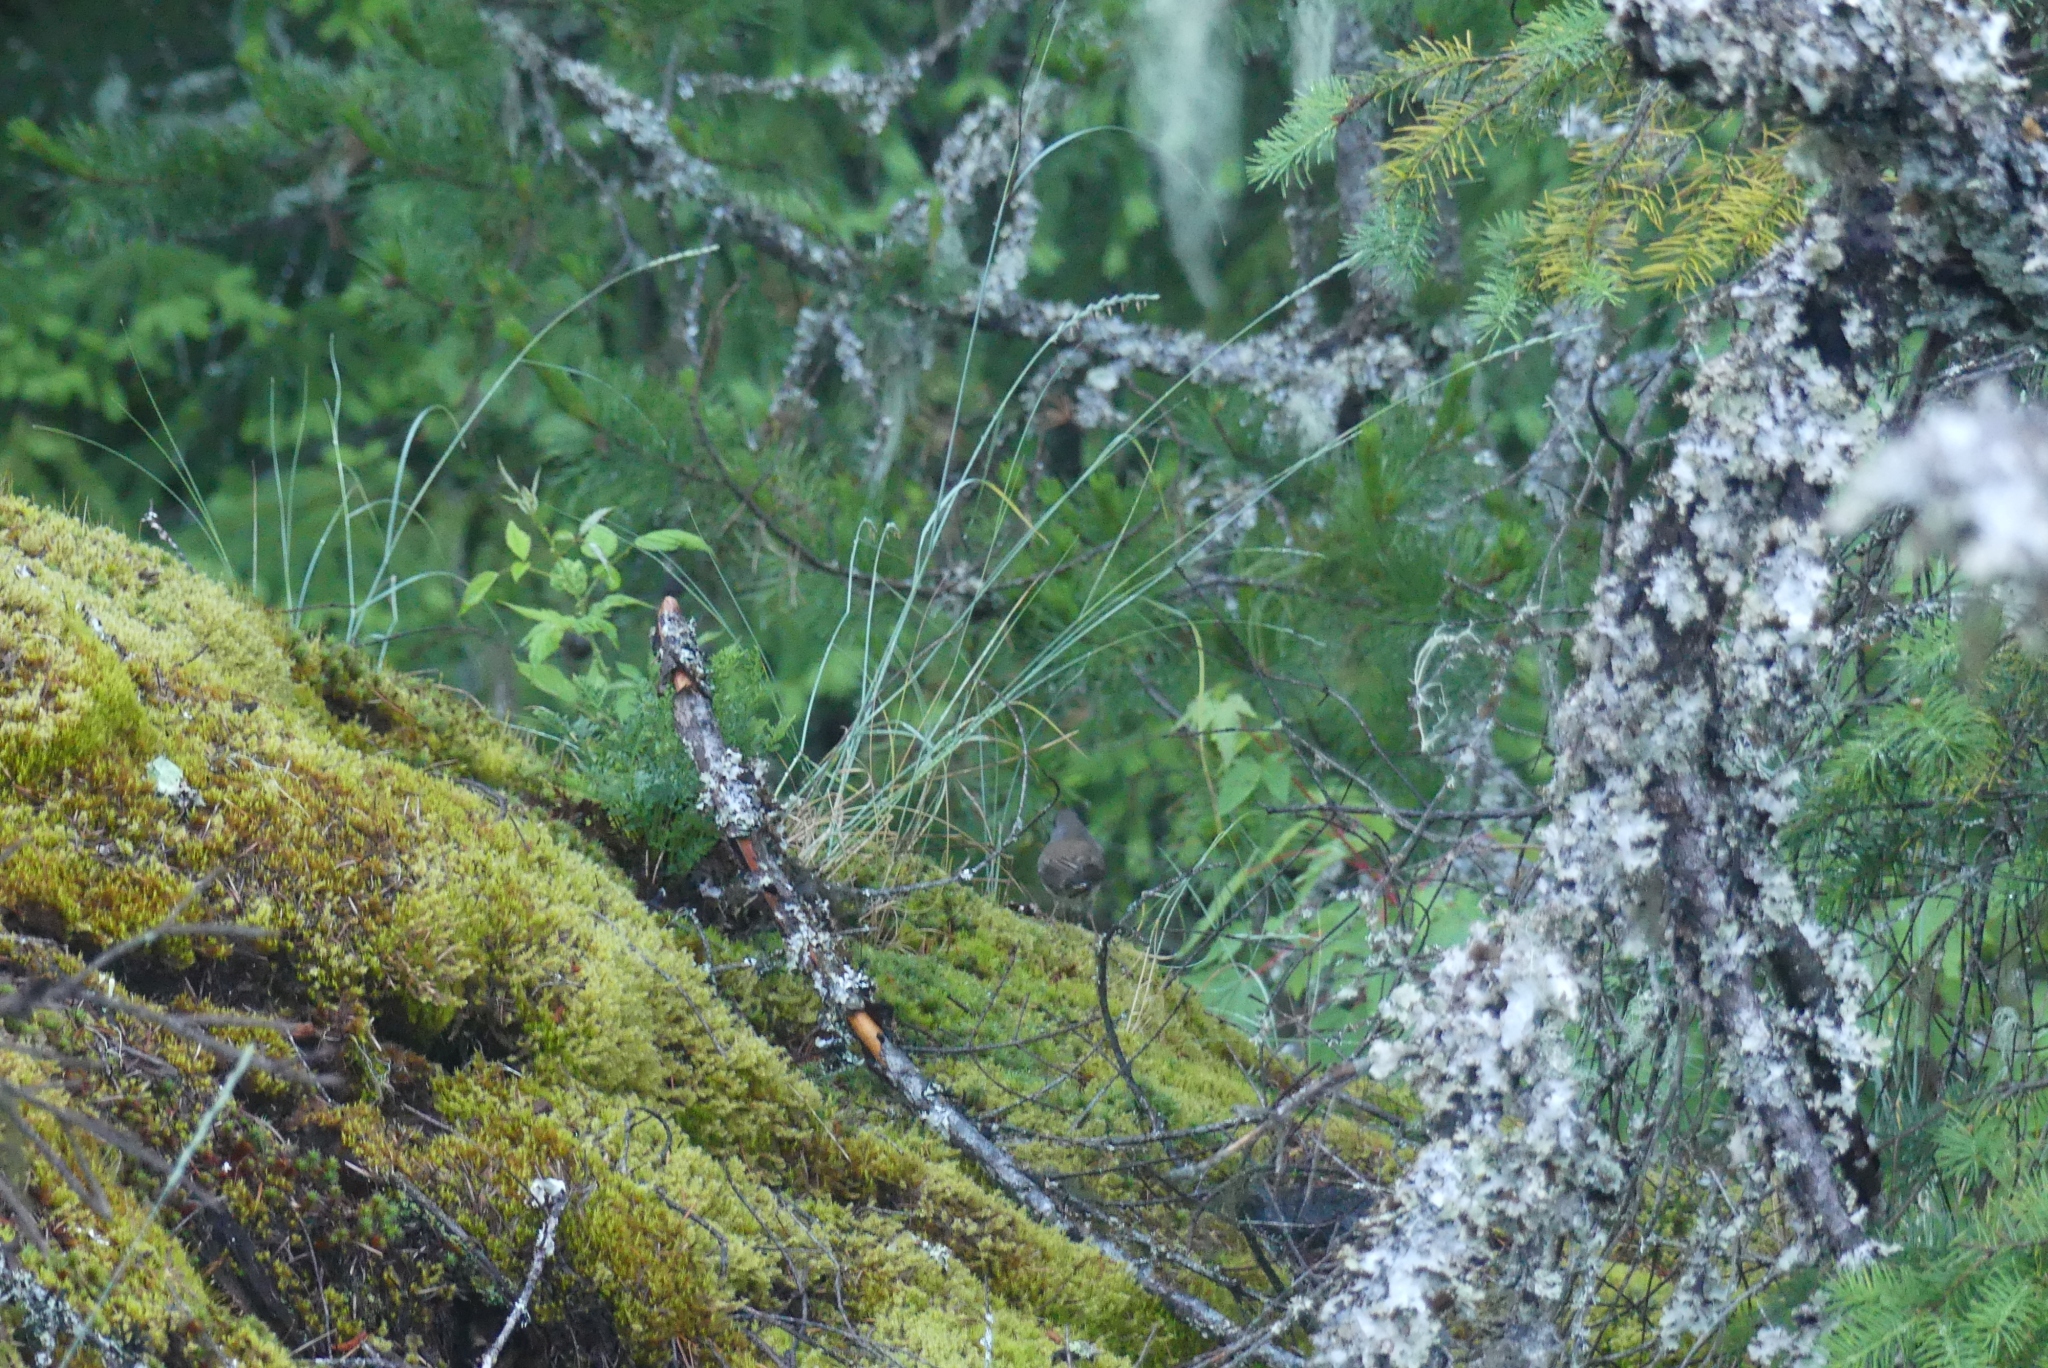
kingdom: Animalia
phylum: Chordata
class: Aves
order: Passeriformes
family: Passerellidae
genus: Junco
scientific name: Junco hyemalis
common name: Dark-eyed junco
